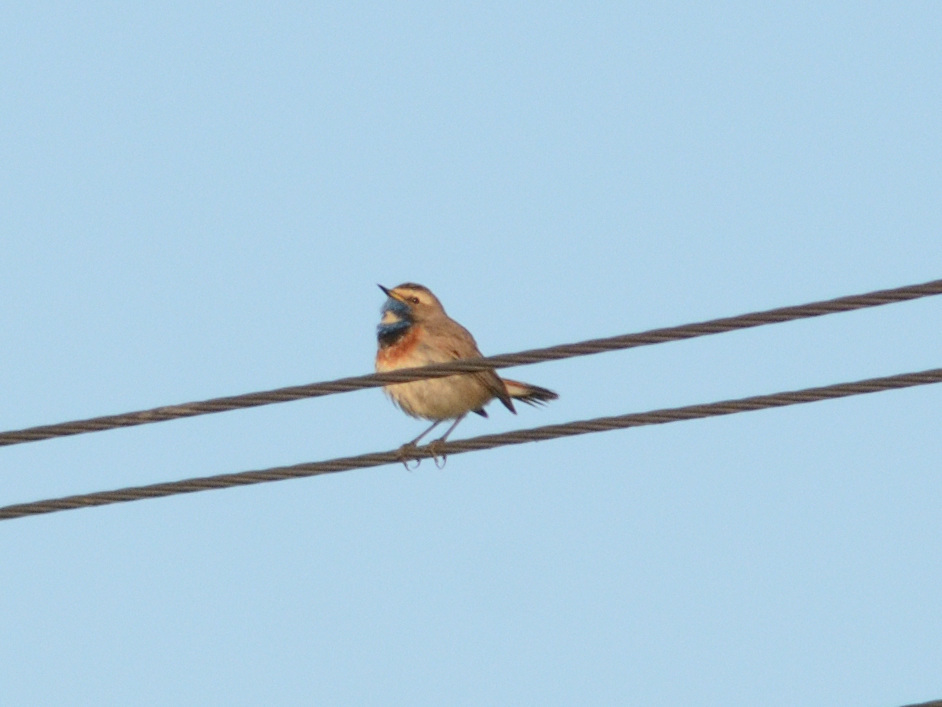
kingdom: Animalia
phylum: Chordata
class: Aves
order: Passeriformes
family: Muscicapidae
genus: Luscinia
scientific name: Luscinia svecica
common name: Bluethroat
